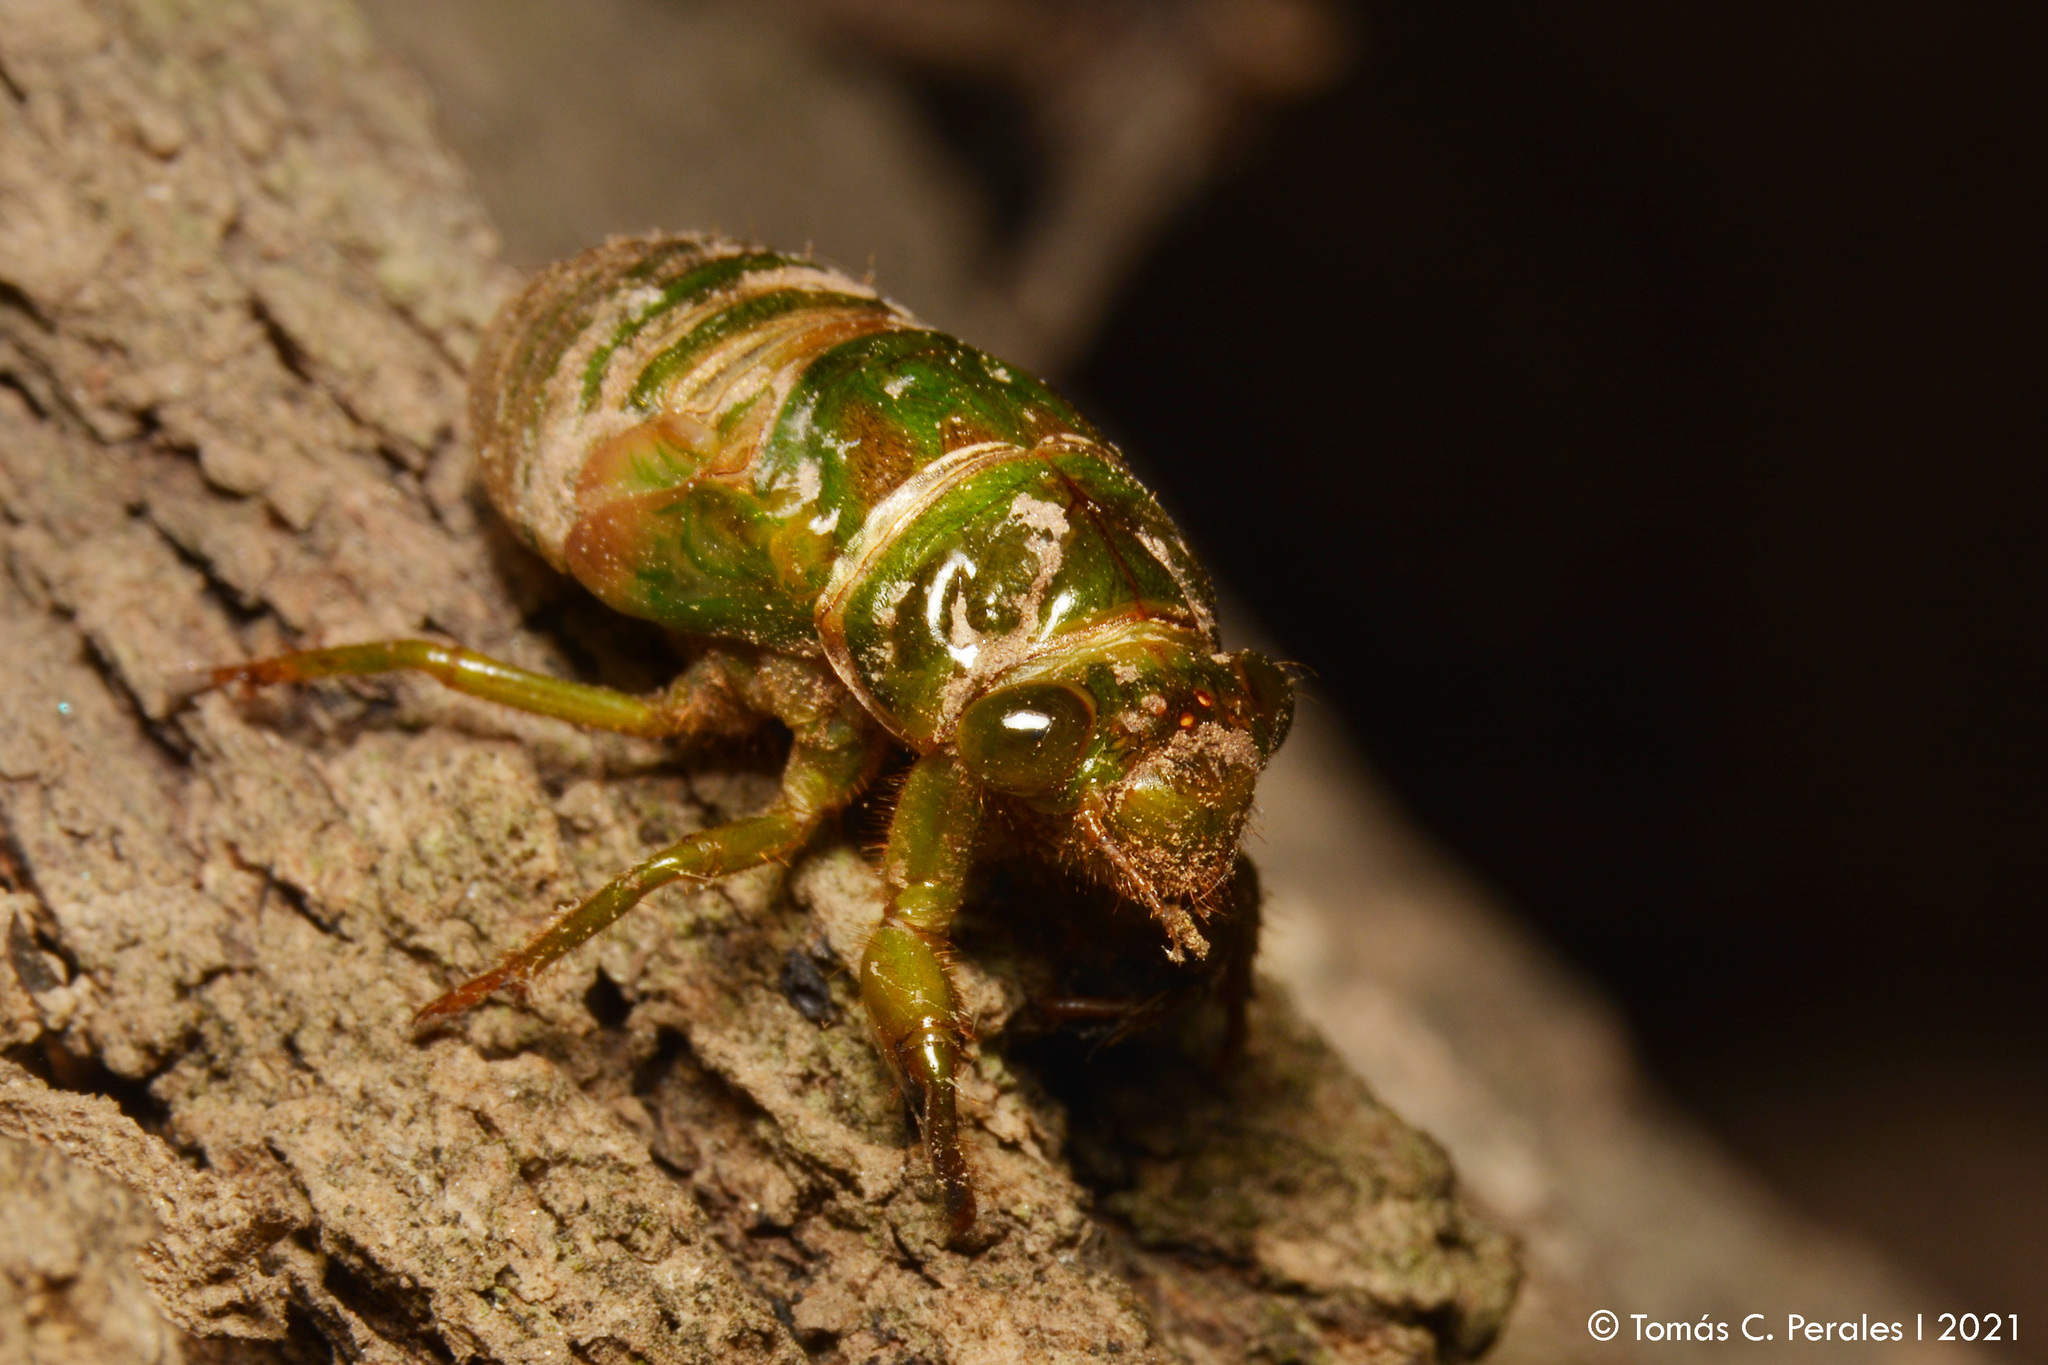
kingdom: Animalia
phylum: Arthropoda
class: Insecta
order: Hemiptera
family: Cicadidae
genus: Acanthoventris
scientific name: Acanthoventris drewseni
